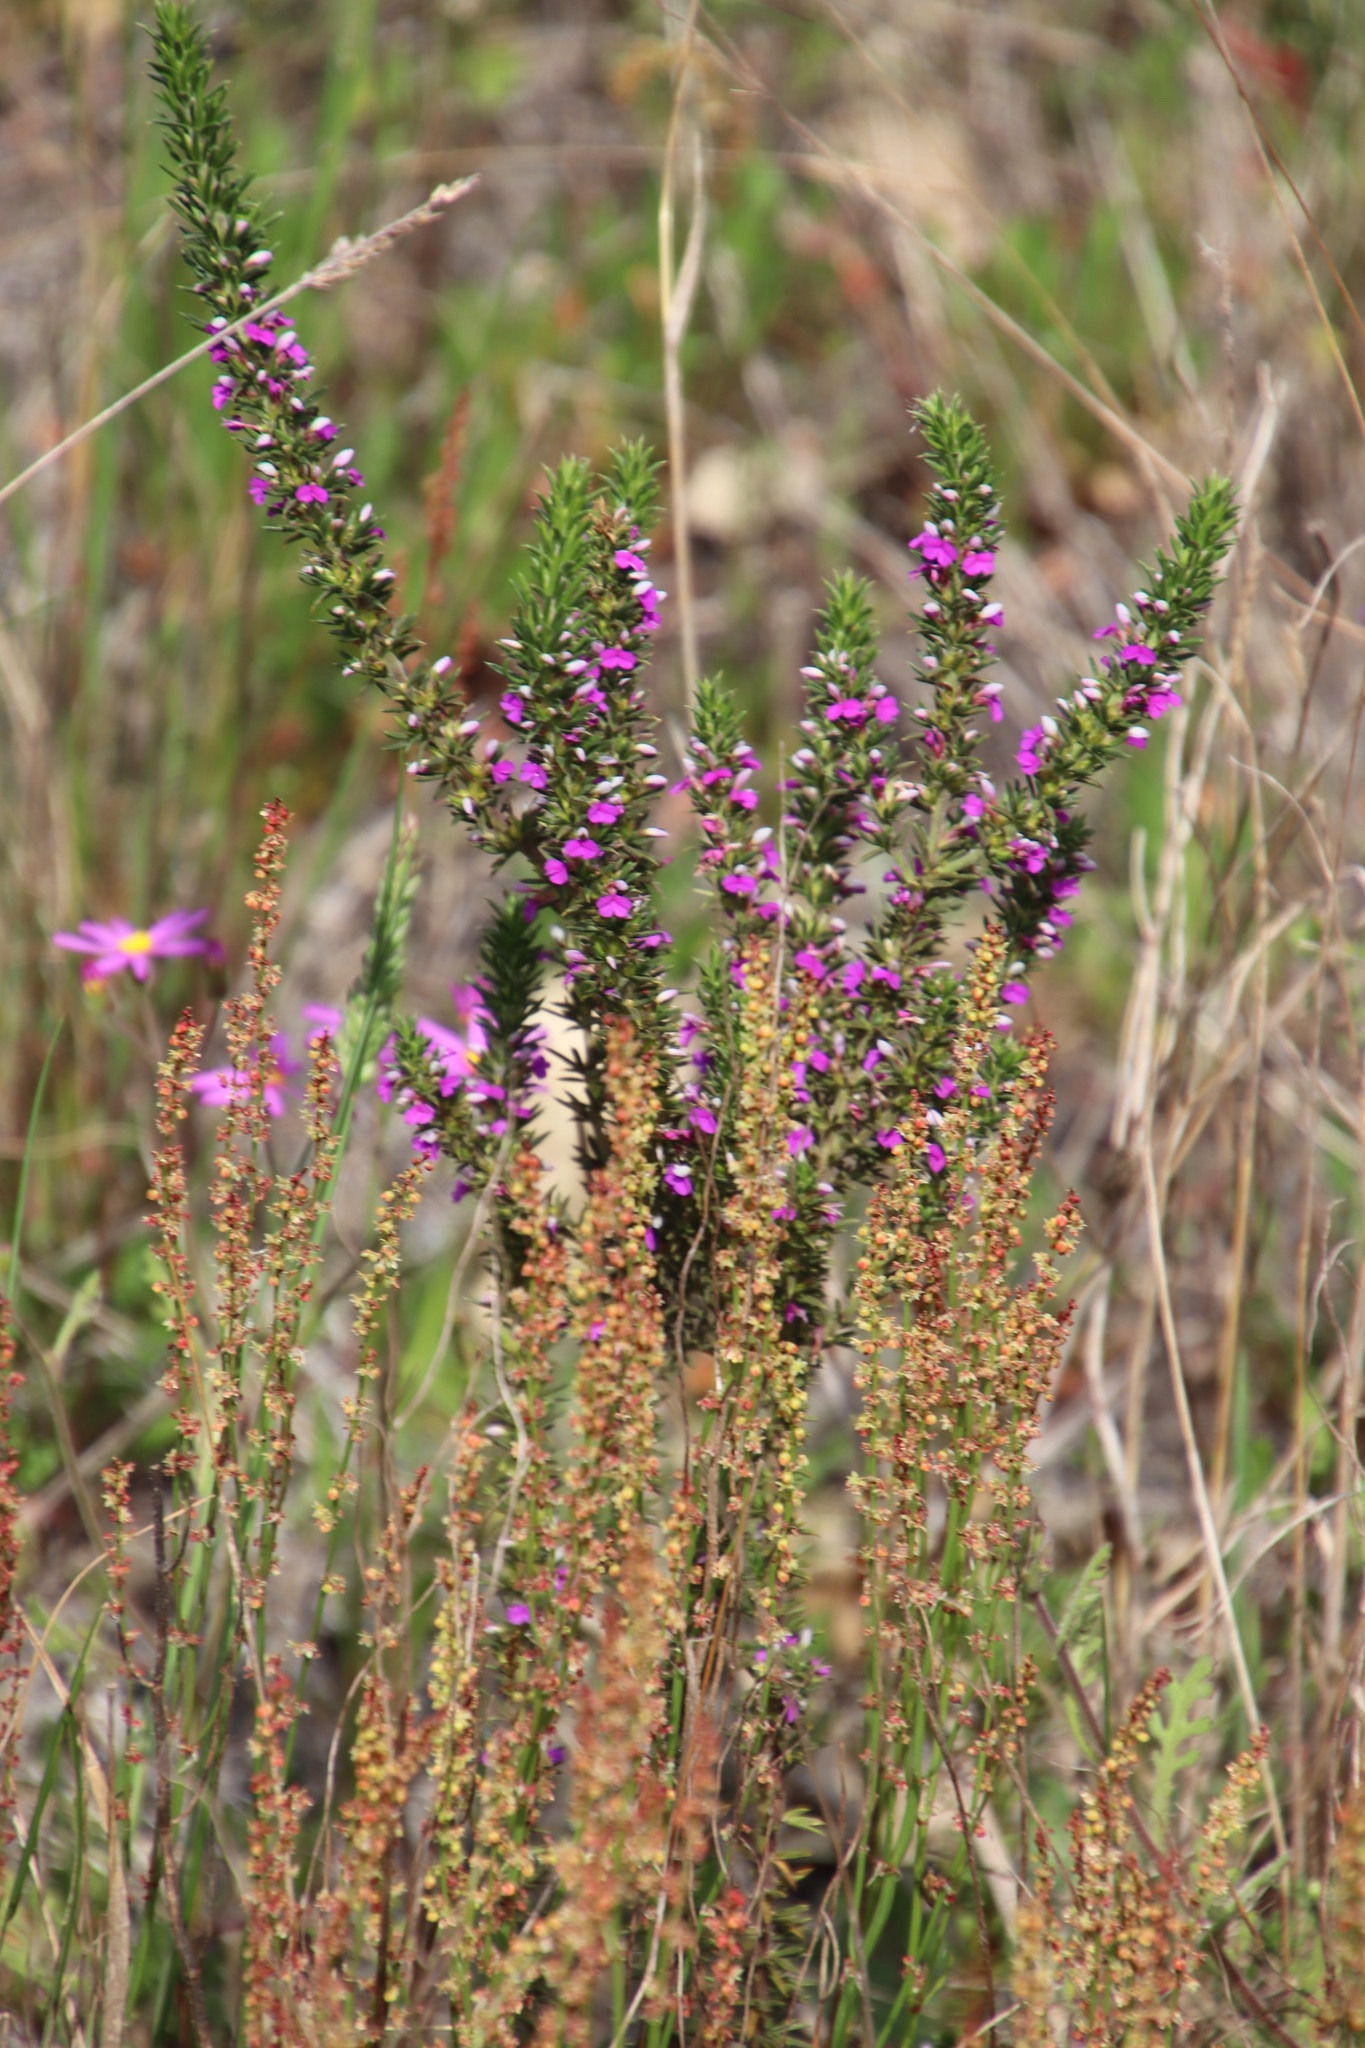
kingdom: Plantae
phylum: Tracheophyta
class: Magnoliopsida
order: Fabales
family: Polygalaceae
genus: Muraltia
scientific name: Muraltia heisteria
